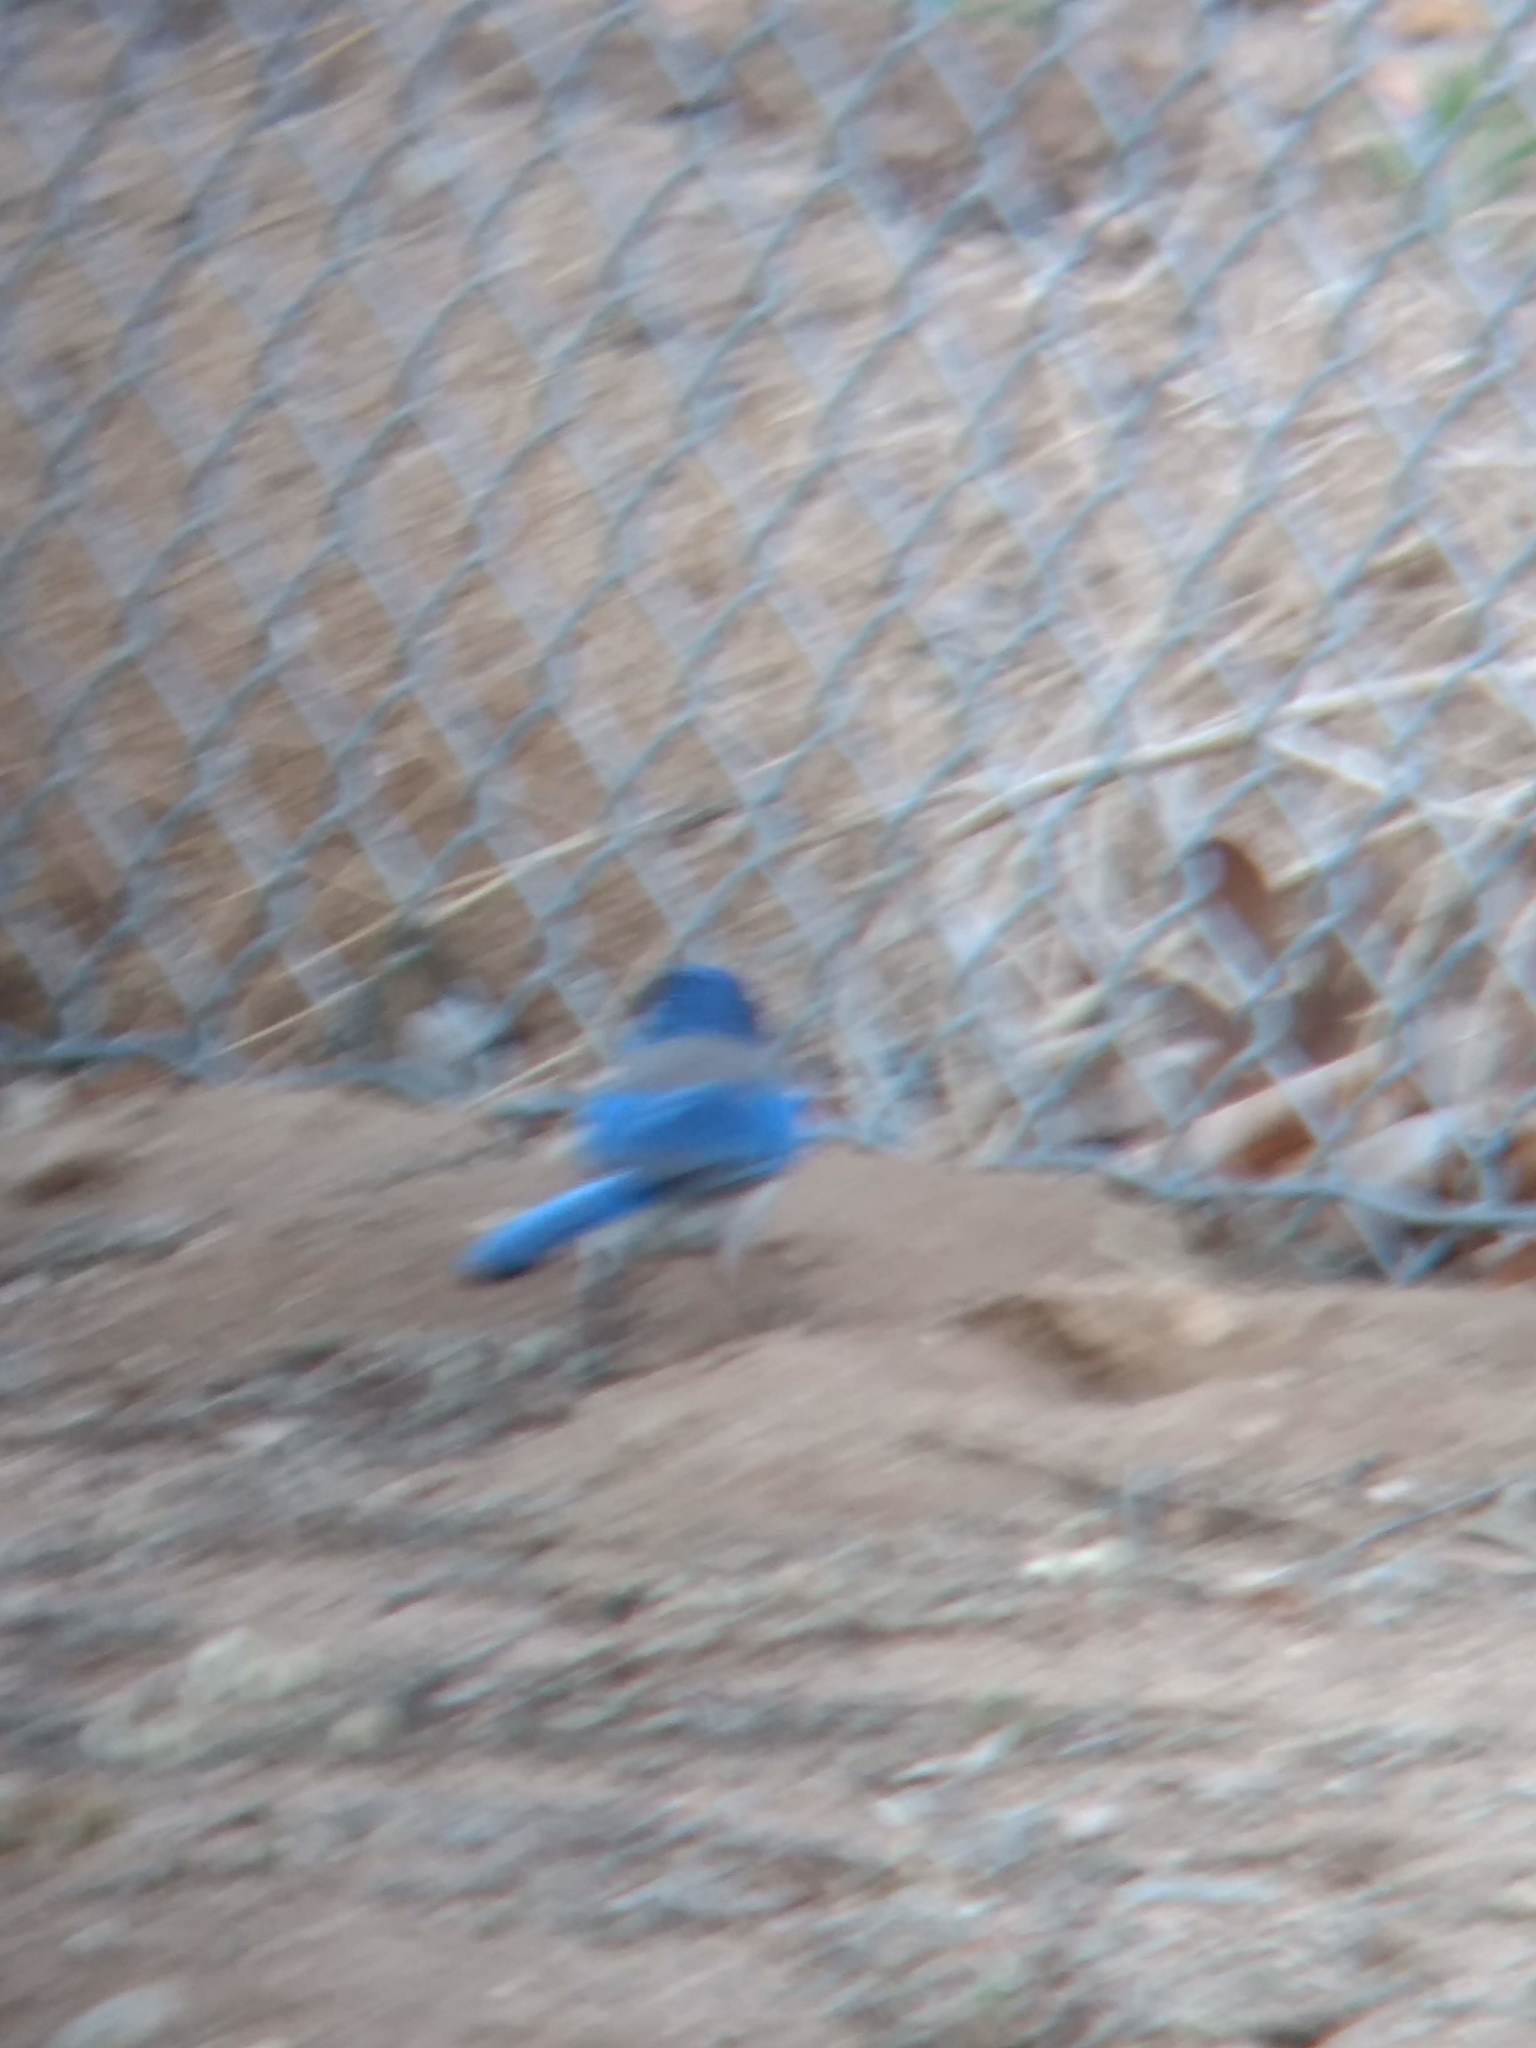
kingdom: Animalia
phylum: Chordata
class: Aves
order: Passeriformes
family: Corvidae
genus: Aphelocoma
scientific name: Aphelocoma californica
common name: California scrub-jay
